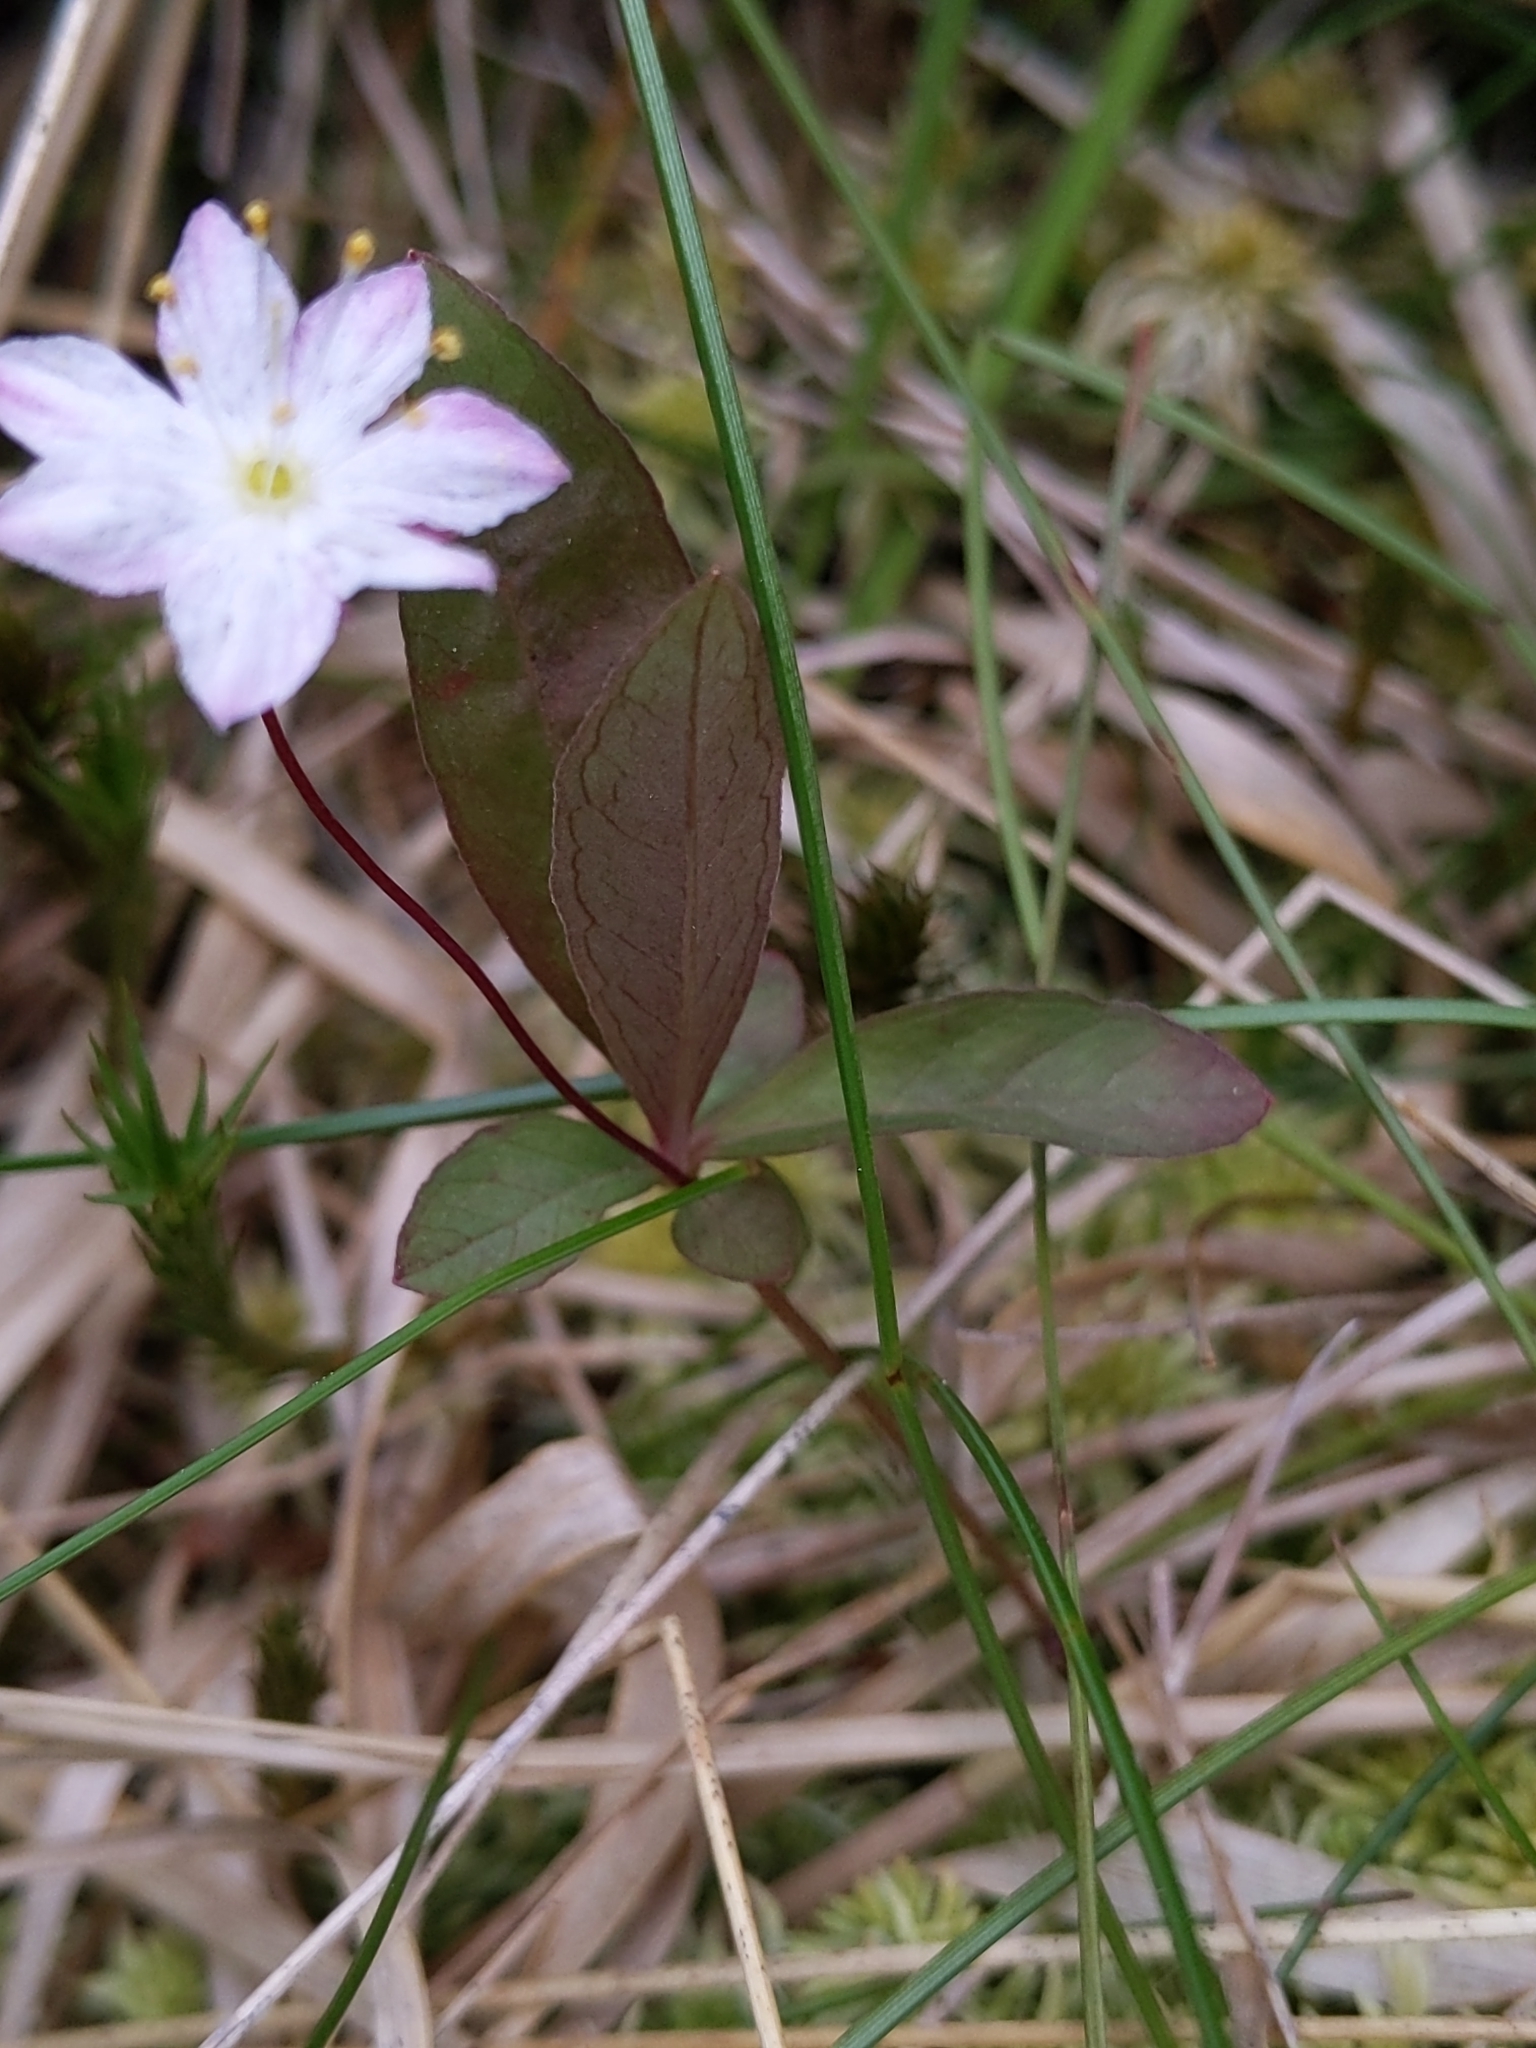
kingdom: Plantae
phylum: Tracheophyta
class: Magnoliopsida
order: Ericales
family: Primulaceae
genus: Lysimachia
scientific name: Lysimachia europaea
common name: Arctic starflower
